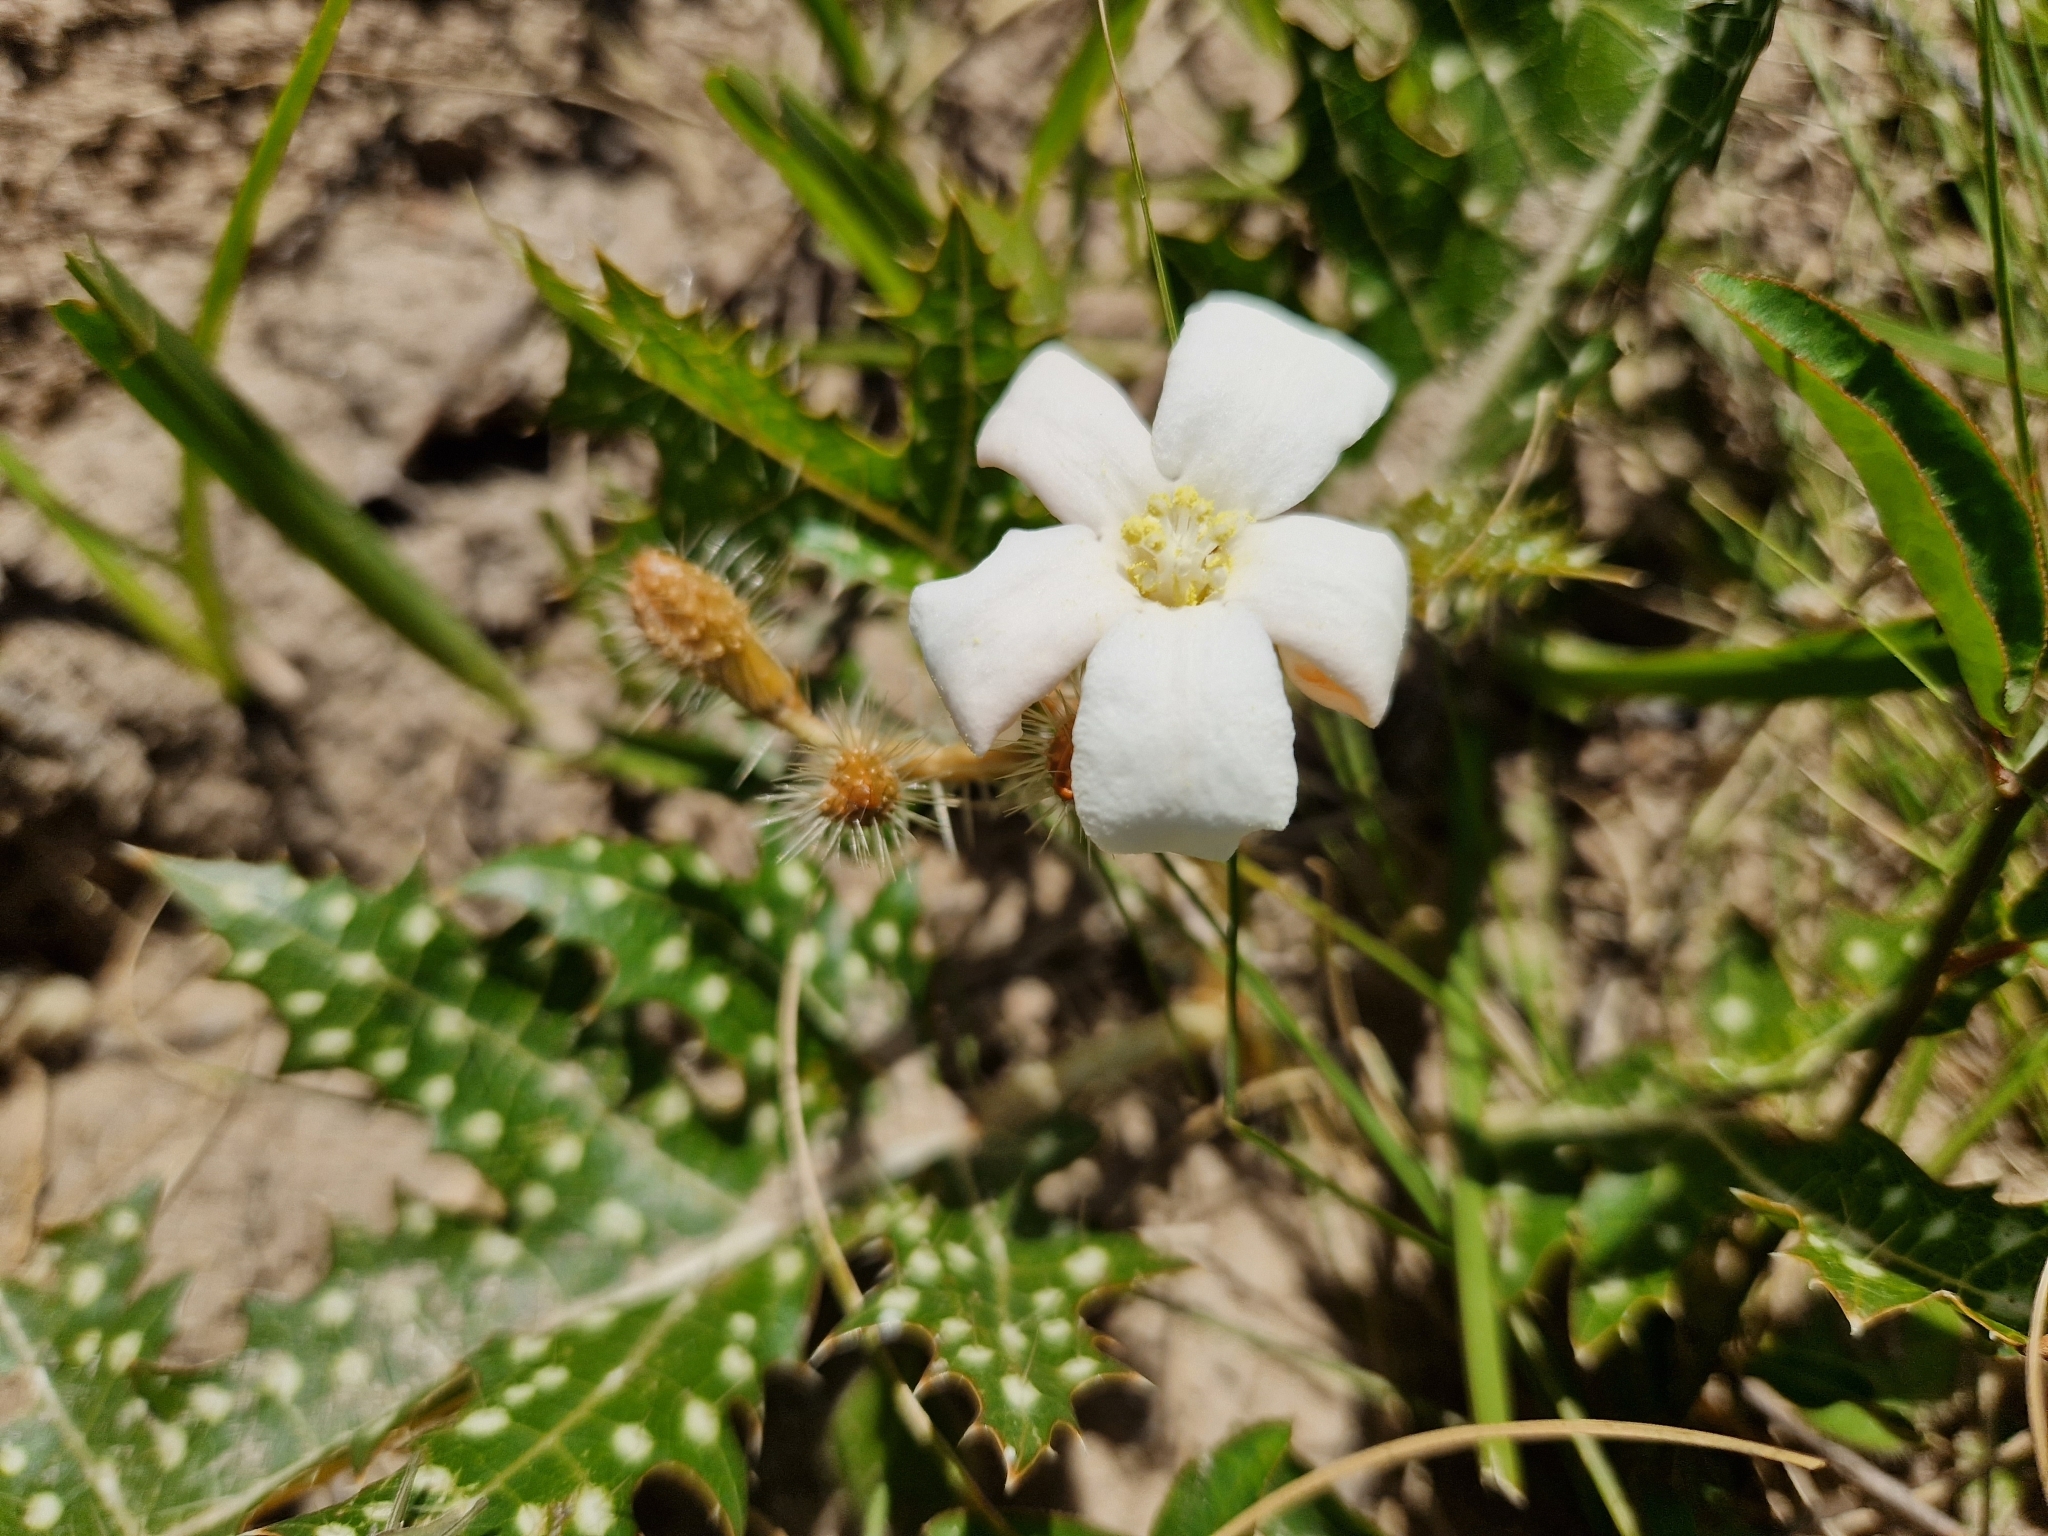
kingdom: Plantae
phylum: Tracheophyta
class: Magnoliopsida
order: Malpighiales
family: Euphorbiaceae
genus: Cnidoscolus
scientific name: Cnidoscolus loasoides
